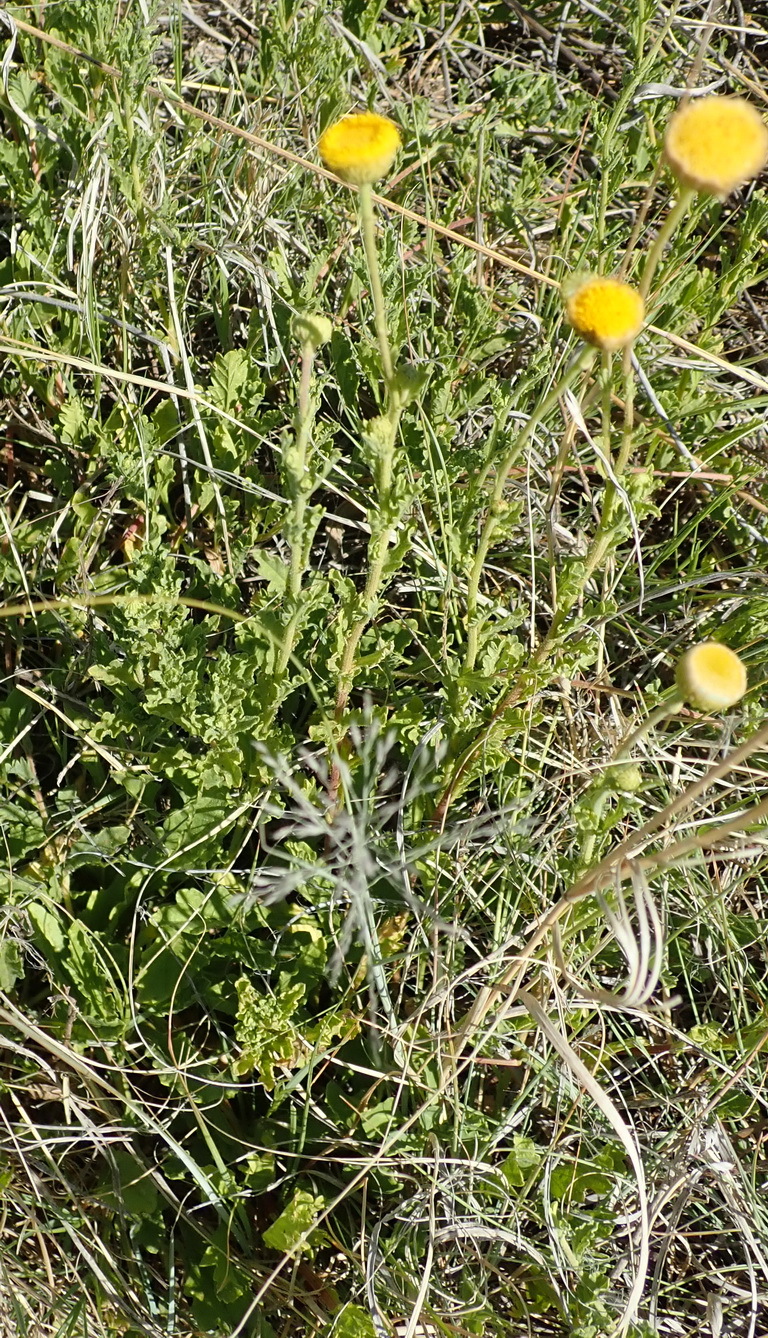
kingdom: Plantae
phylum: Tracheophyta
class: Magnoliopsida
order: Asterales
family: Asteraceae
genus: Nidorella
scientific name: Nidorella podocephala
